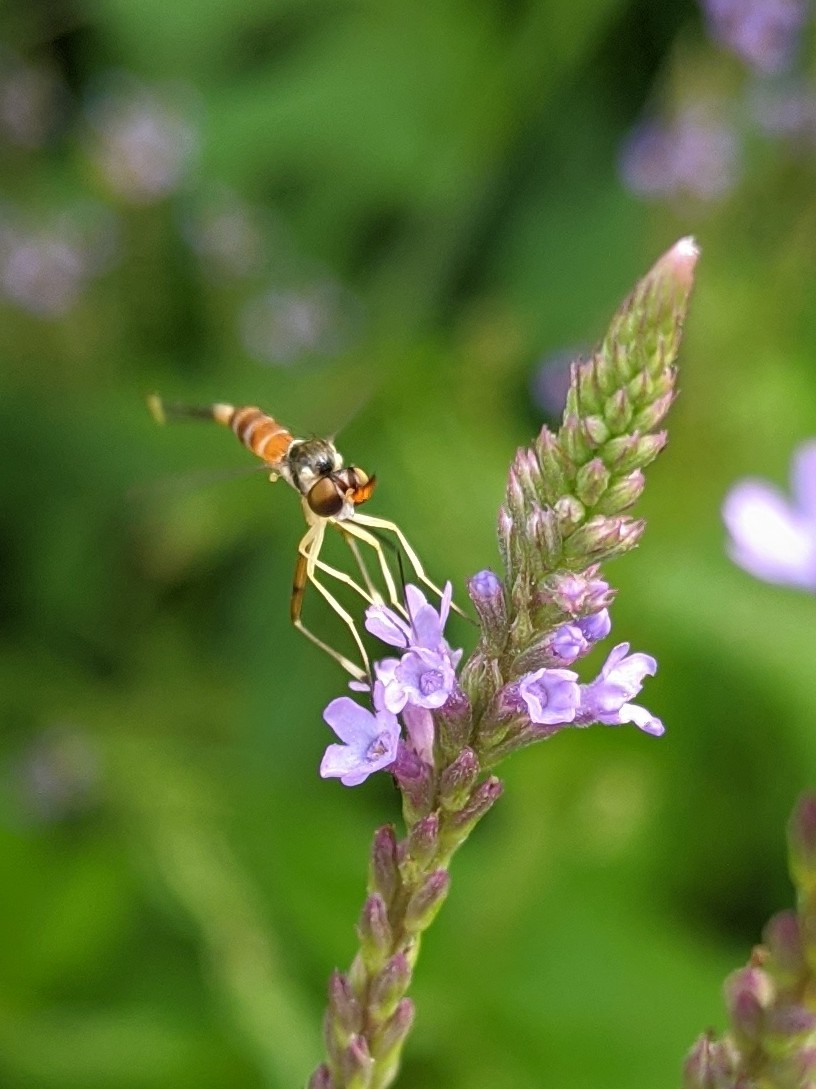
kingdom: Animalia
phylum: Arthropoda
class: Insecta
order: Diptera
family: Conopidae
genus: Stylogaster
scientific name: Stylogaster neglecta
